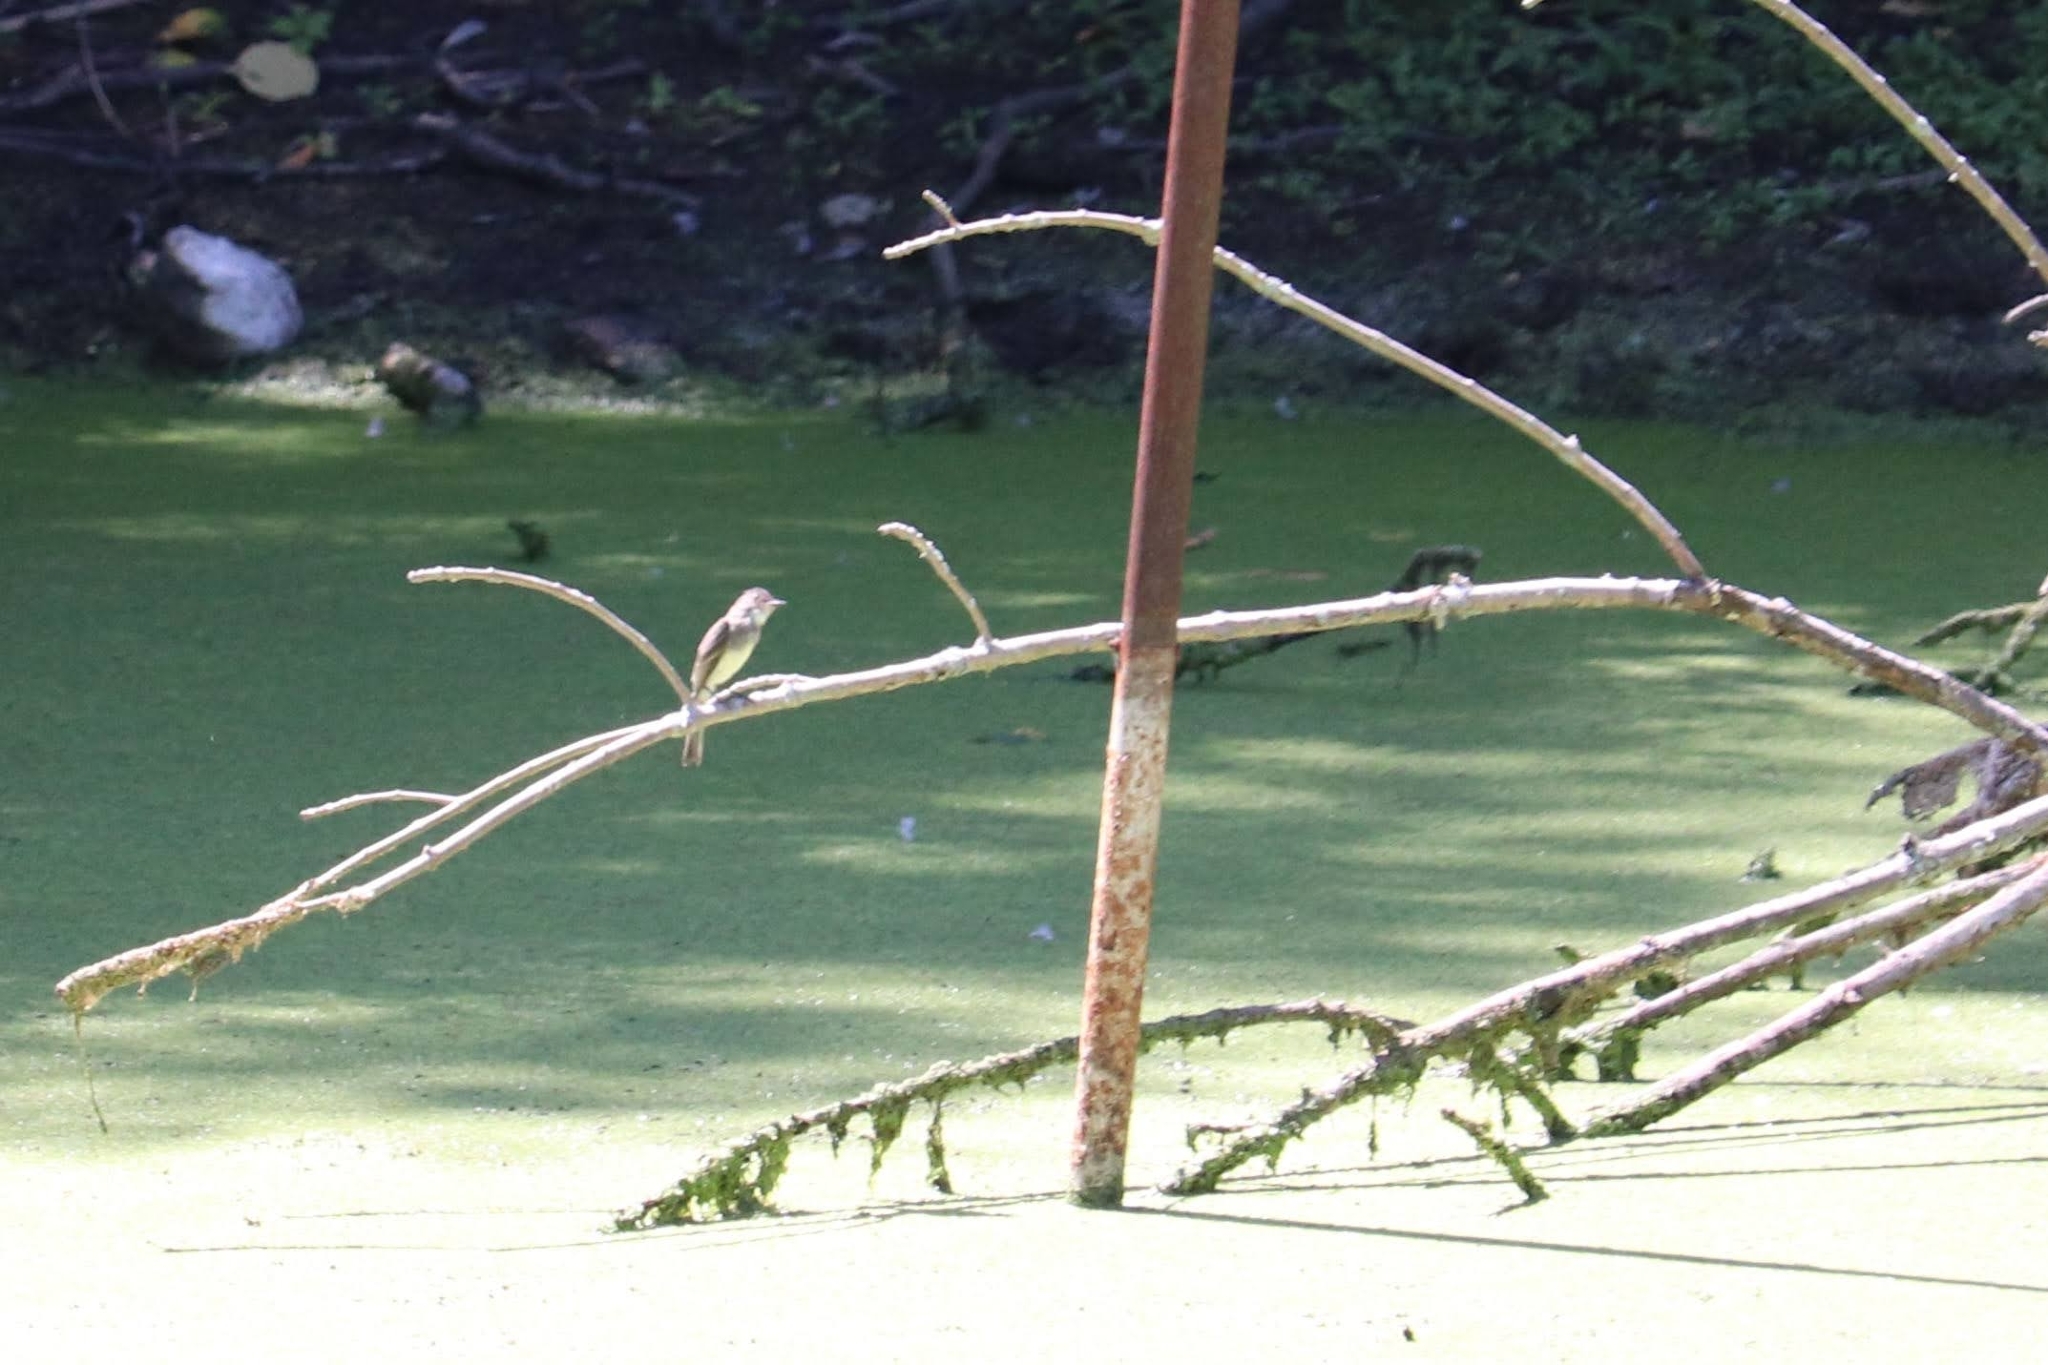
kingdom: Animalia
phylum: Chordata
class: Aves
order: Passeriformes
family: Tyrannidae
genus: Myiarchus
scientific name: Myiarchus crinitus
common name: Great crested flycatcher
